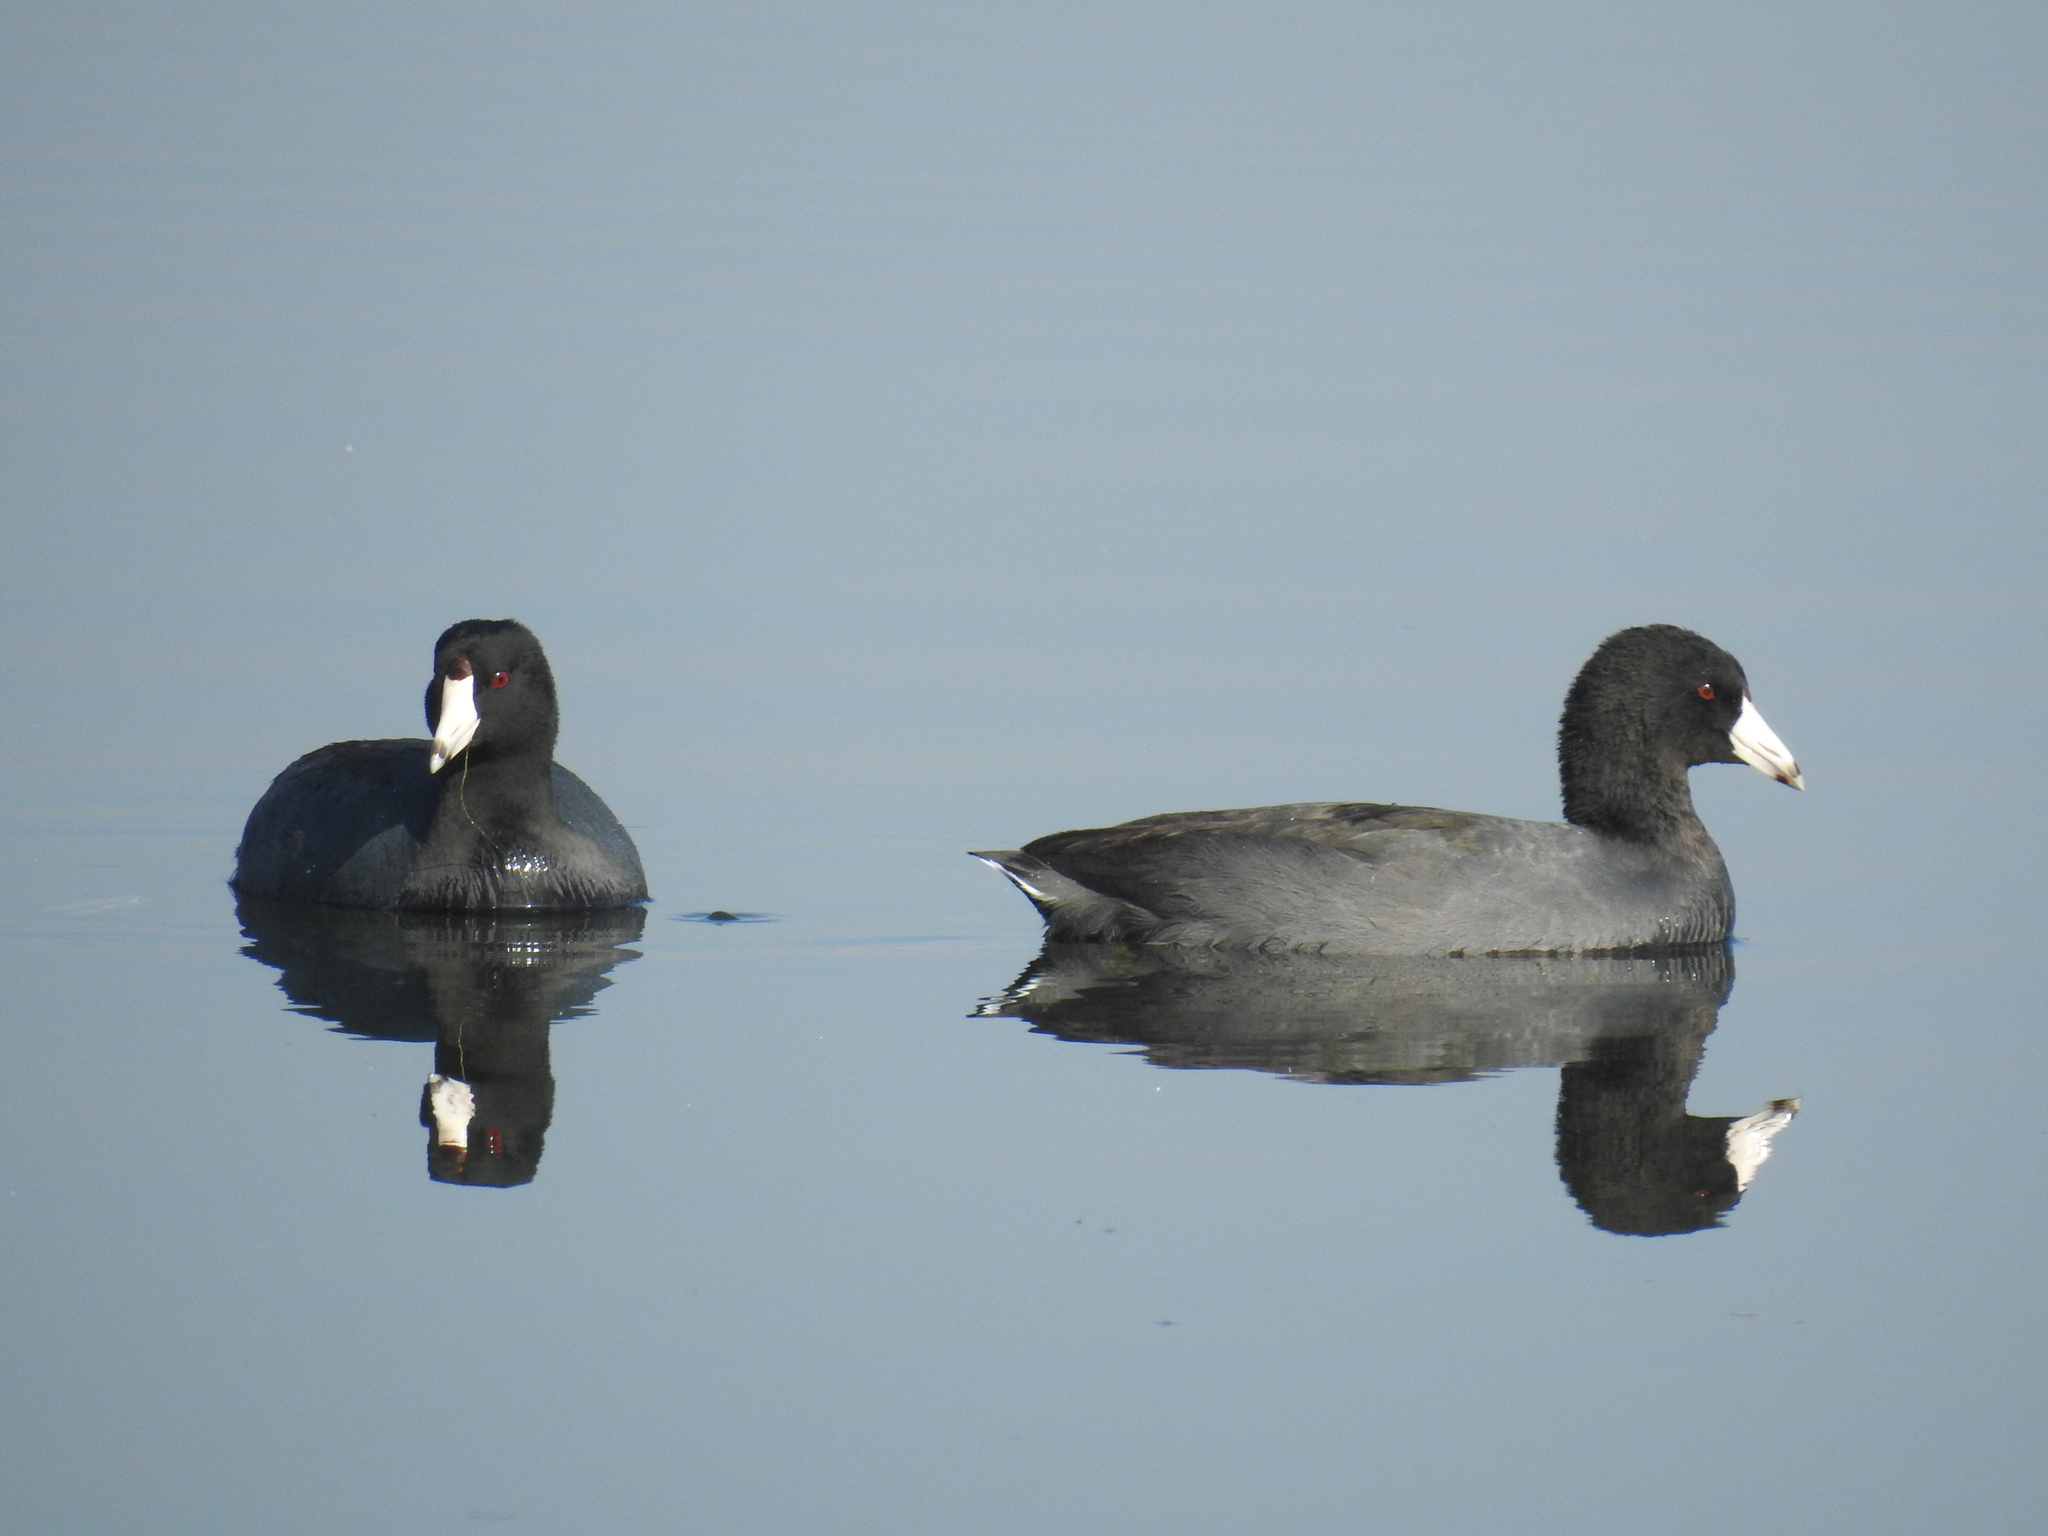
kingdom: Animalia
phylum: Chordata
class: Aves
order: Gruiformes
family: Rallidae
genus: Fulica
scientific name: Fulica americana
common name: American coot
